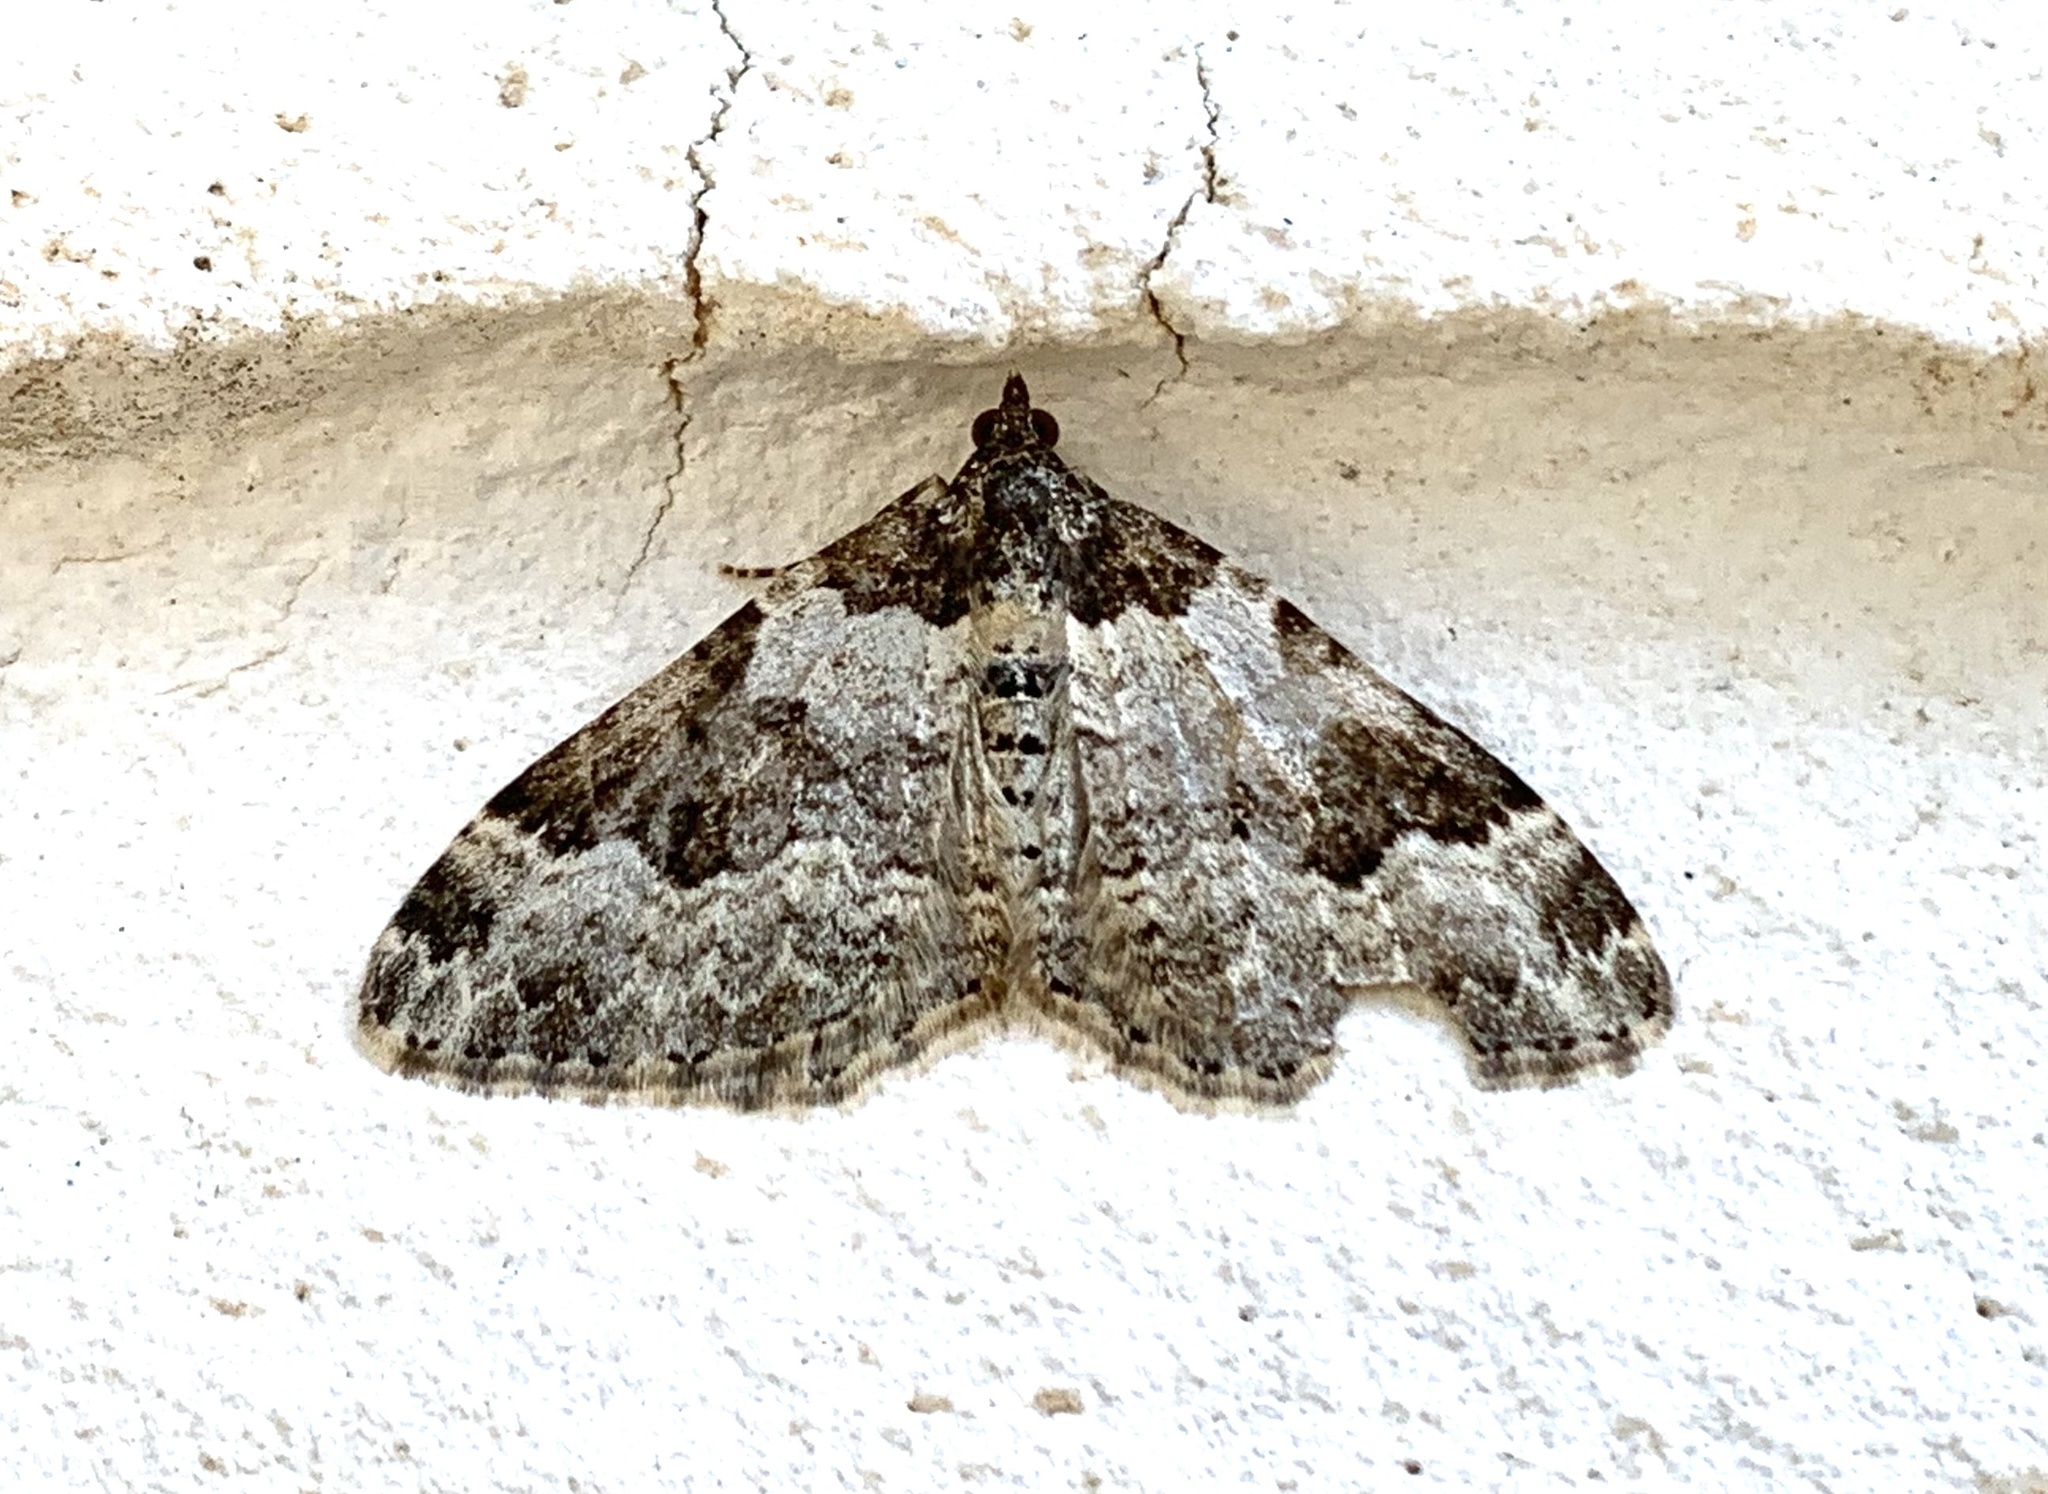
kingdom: Animalia
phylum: Arthropoda
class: Insecta
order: Lepidoptera
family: Geometridae
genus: Xanthorhoe
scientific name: Xanthorhoe fluctuata
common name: Garden carpet
